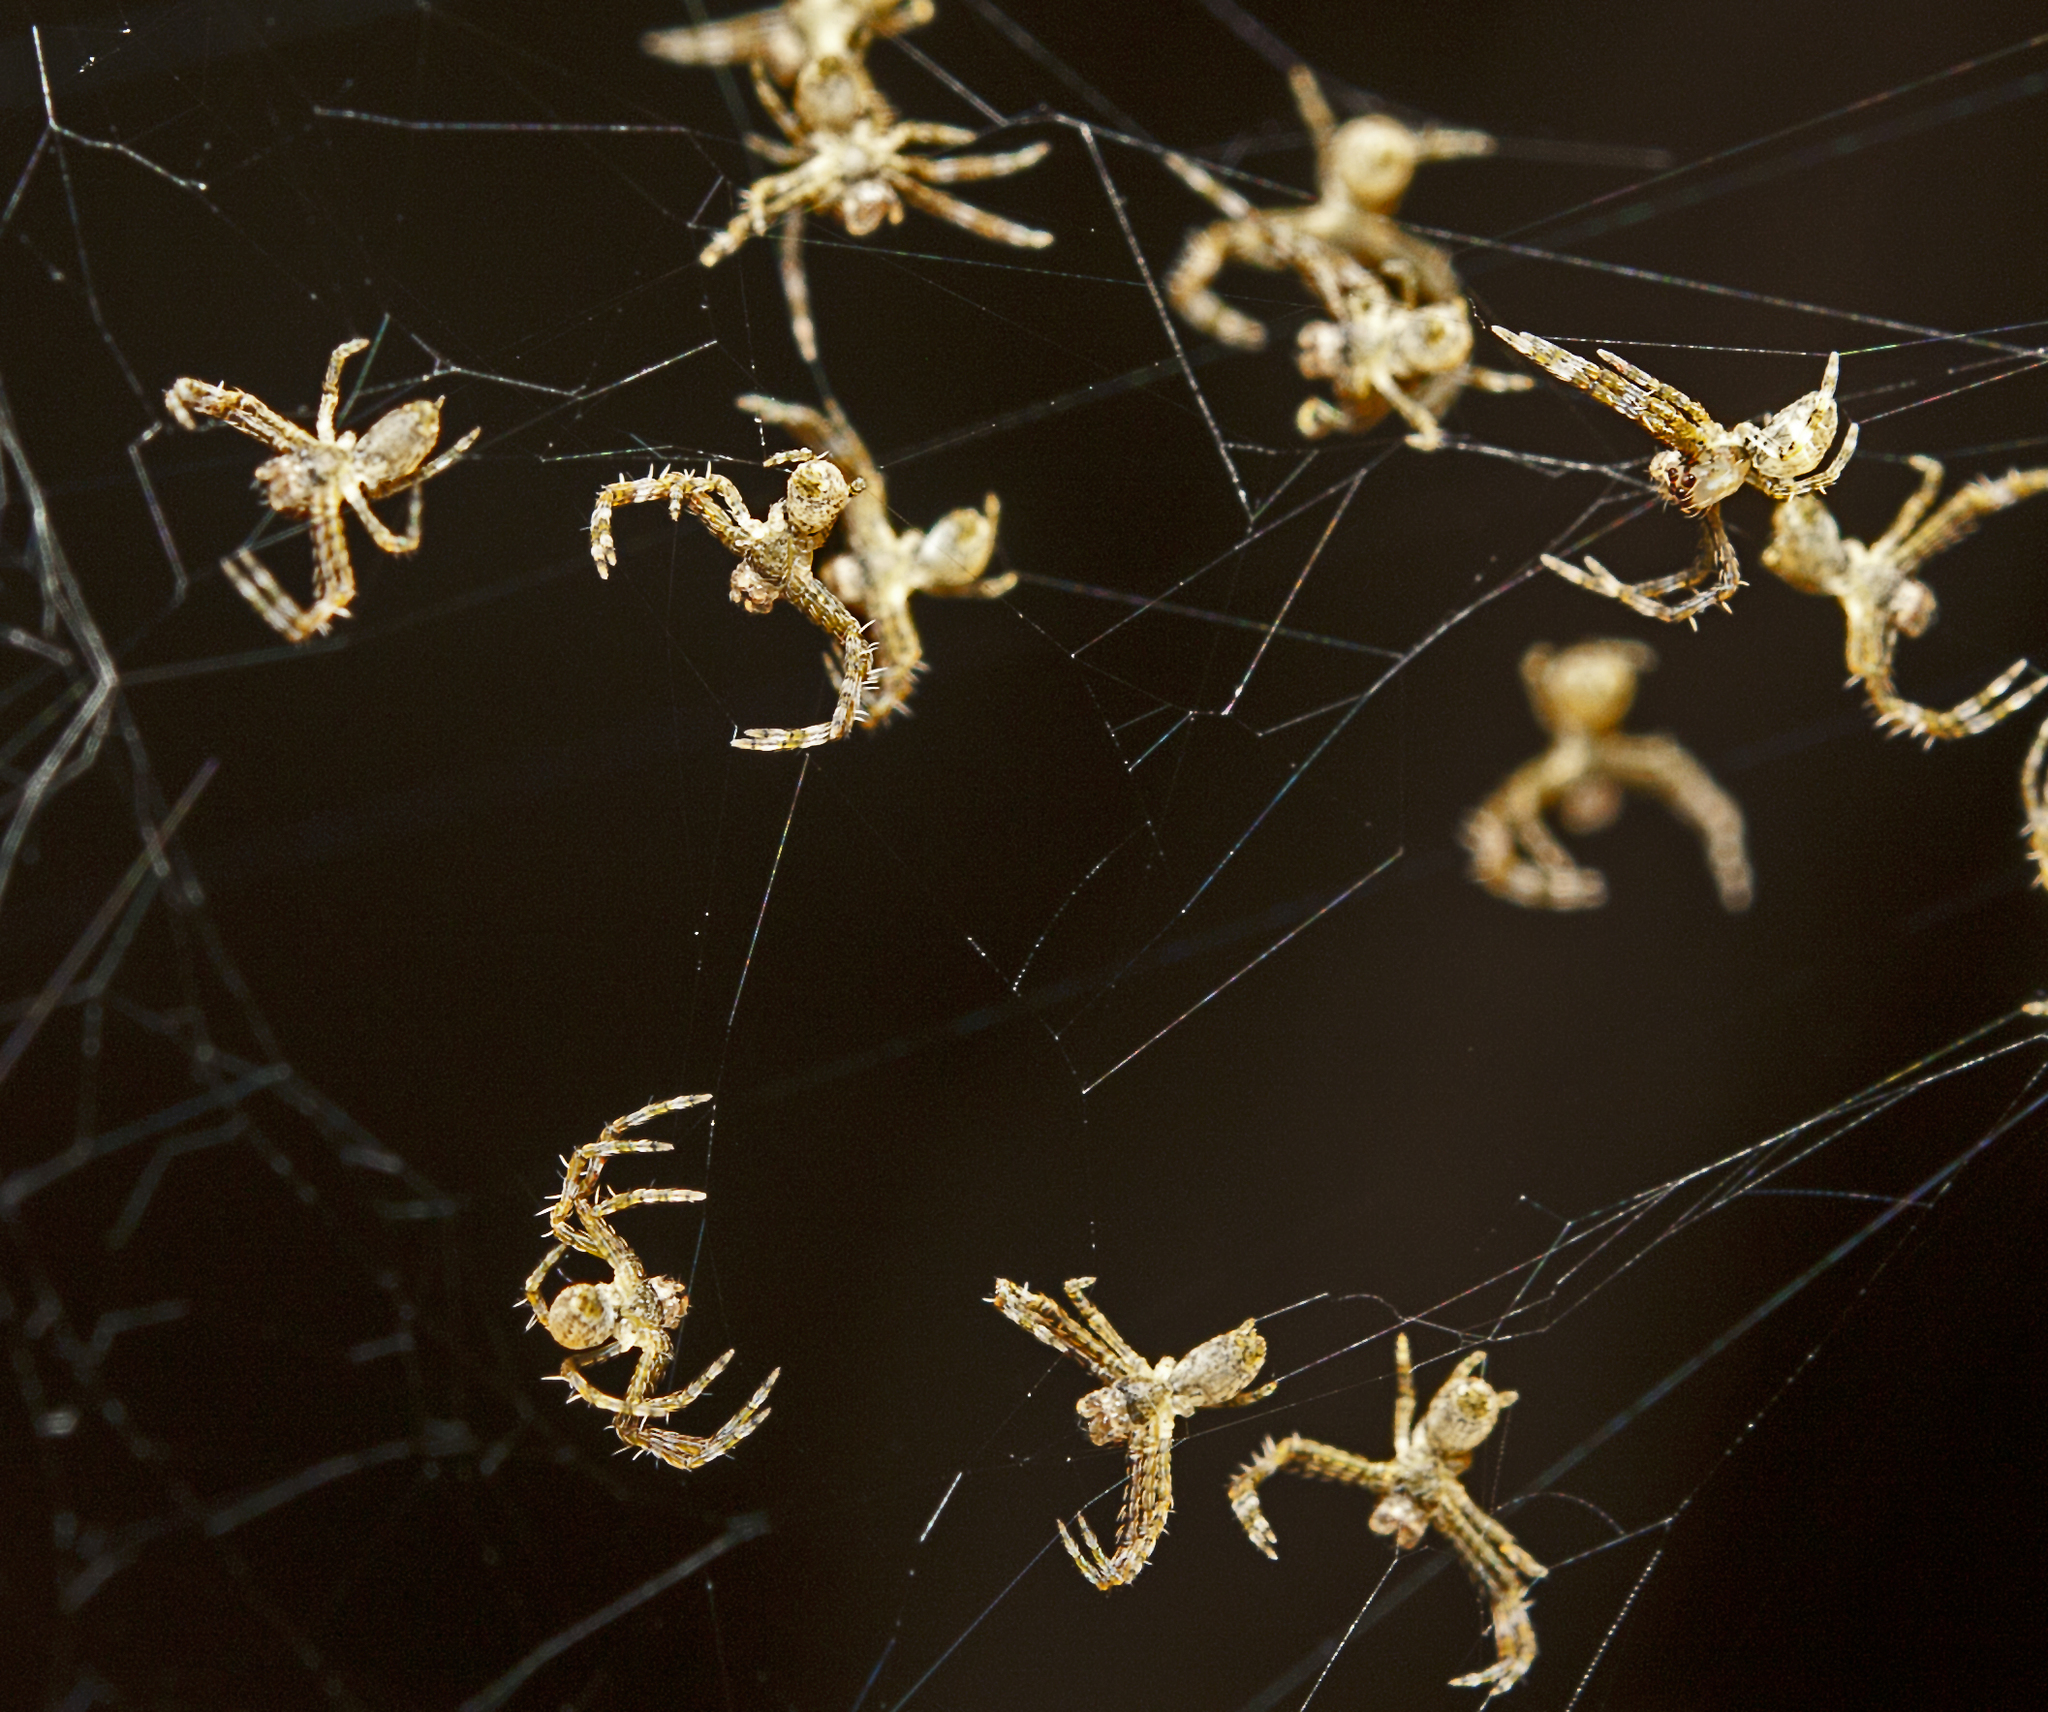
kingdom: Animalia
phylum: Arthropoda
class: Arachnida
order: Araneae
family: Deinopidae
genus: Menneus
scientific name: Menneus nemesio
